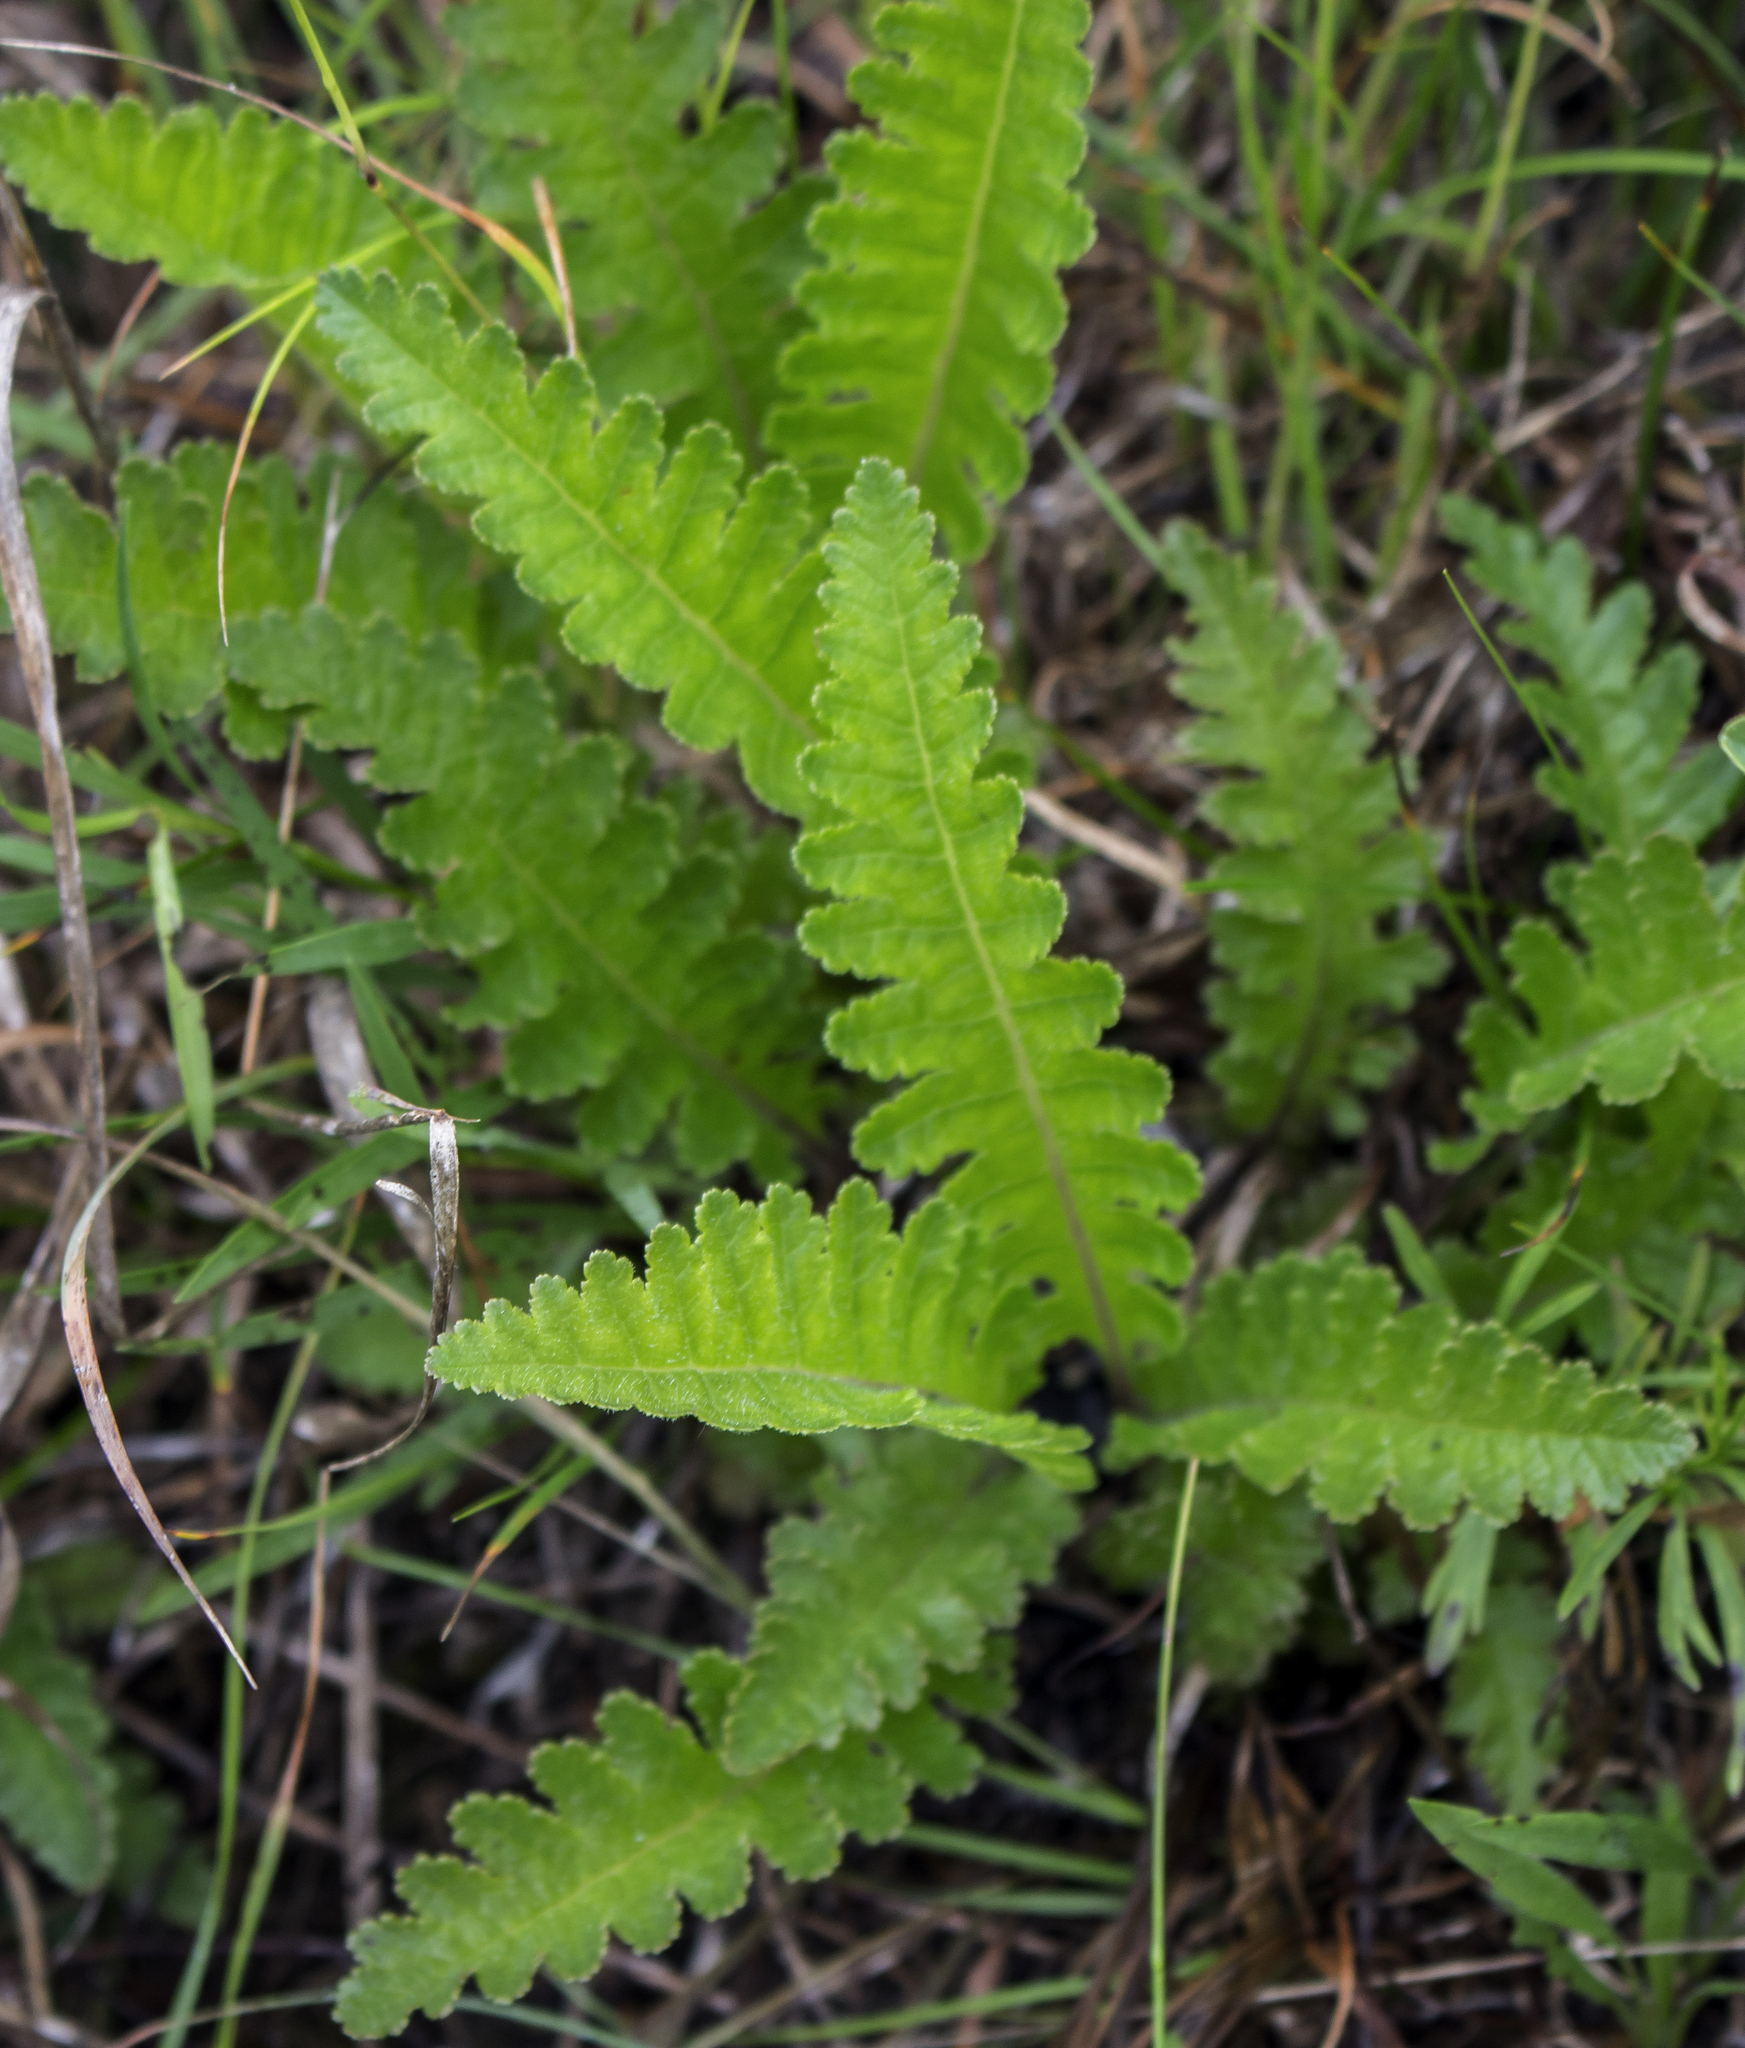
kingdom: Plantae
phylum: Tracheophyta
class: Magnoliopsida
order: Lamiales
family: Orobanchaceae
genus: Pedicularis
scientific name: Pedicularis canadensis
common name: Early lousewort
